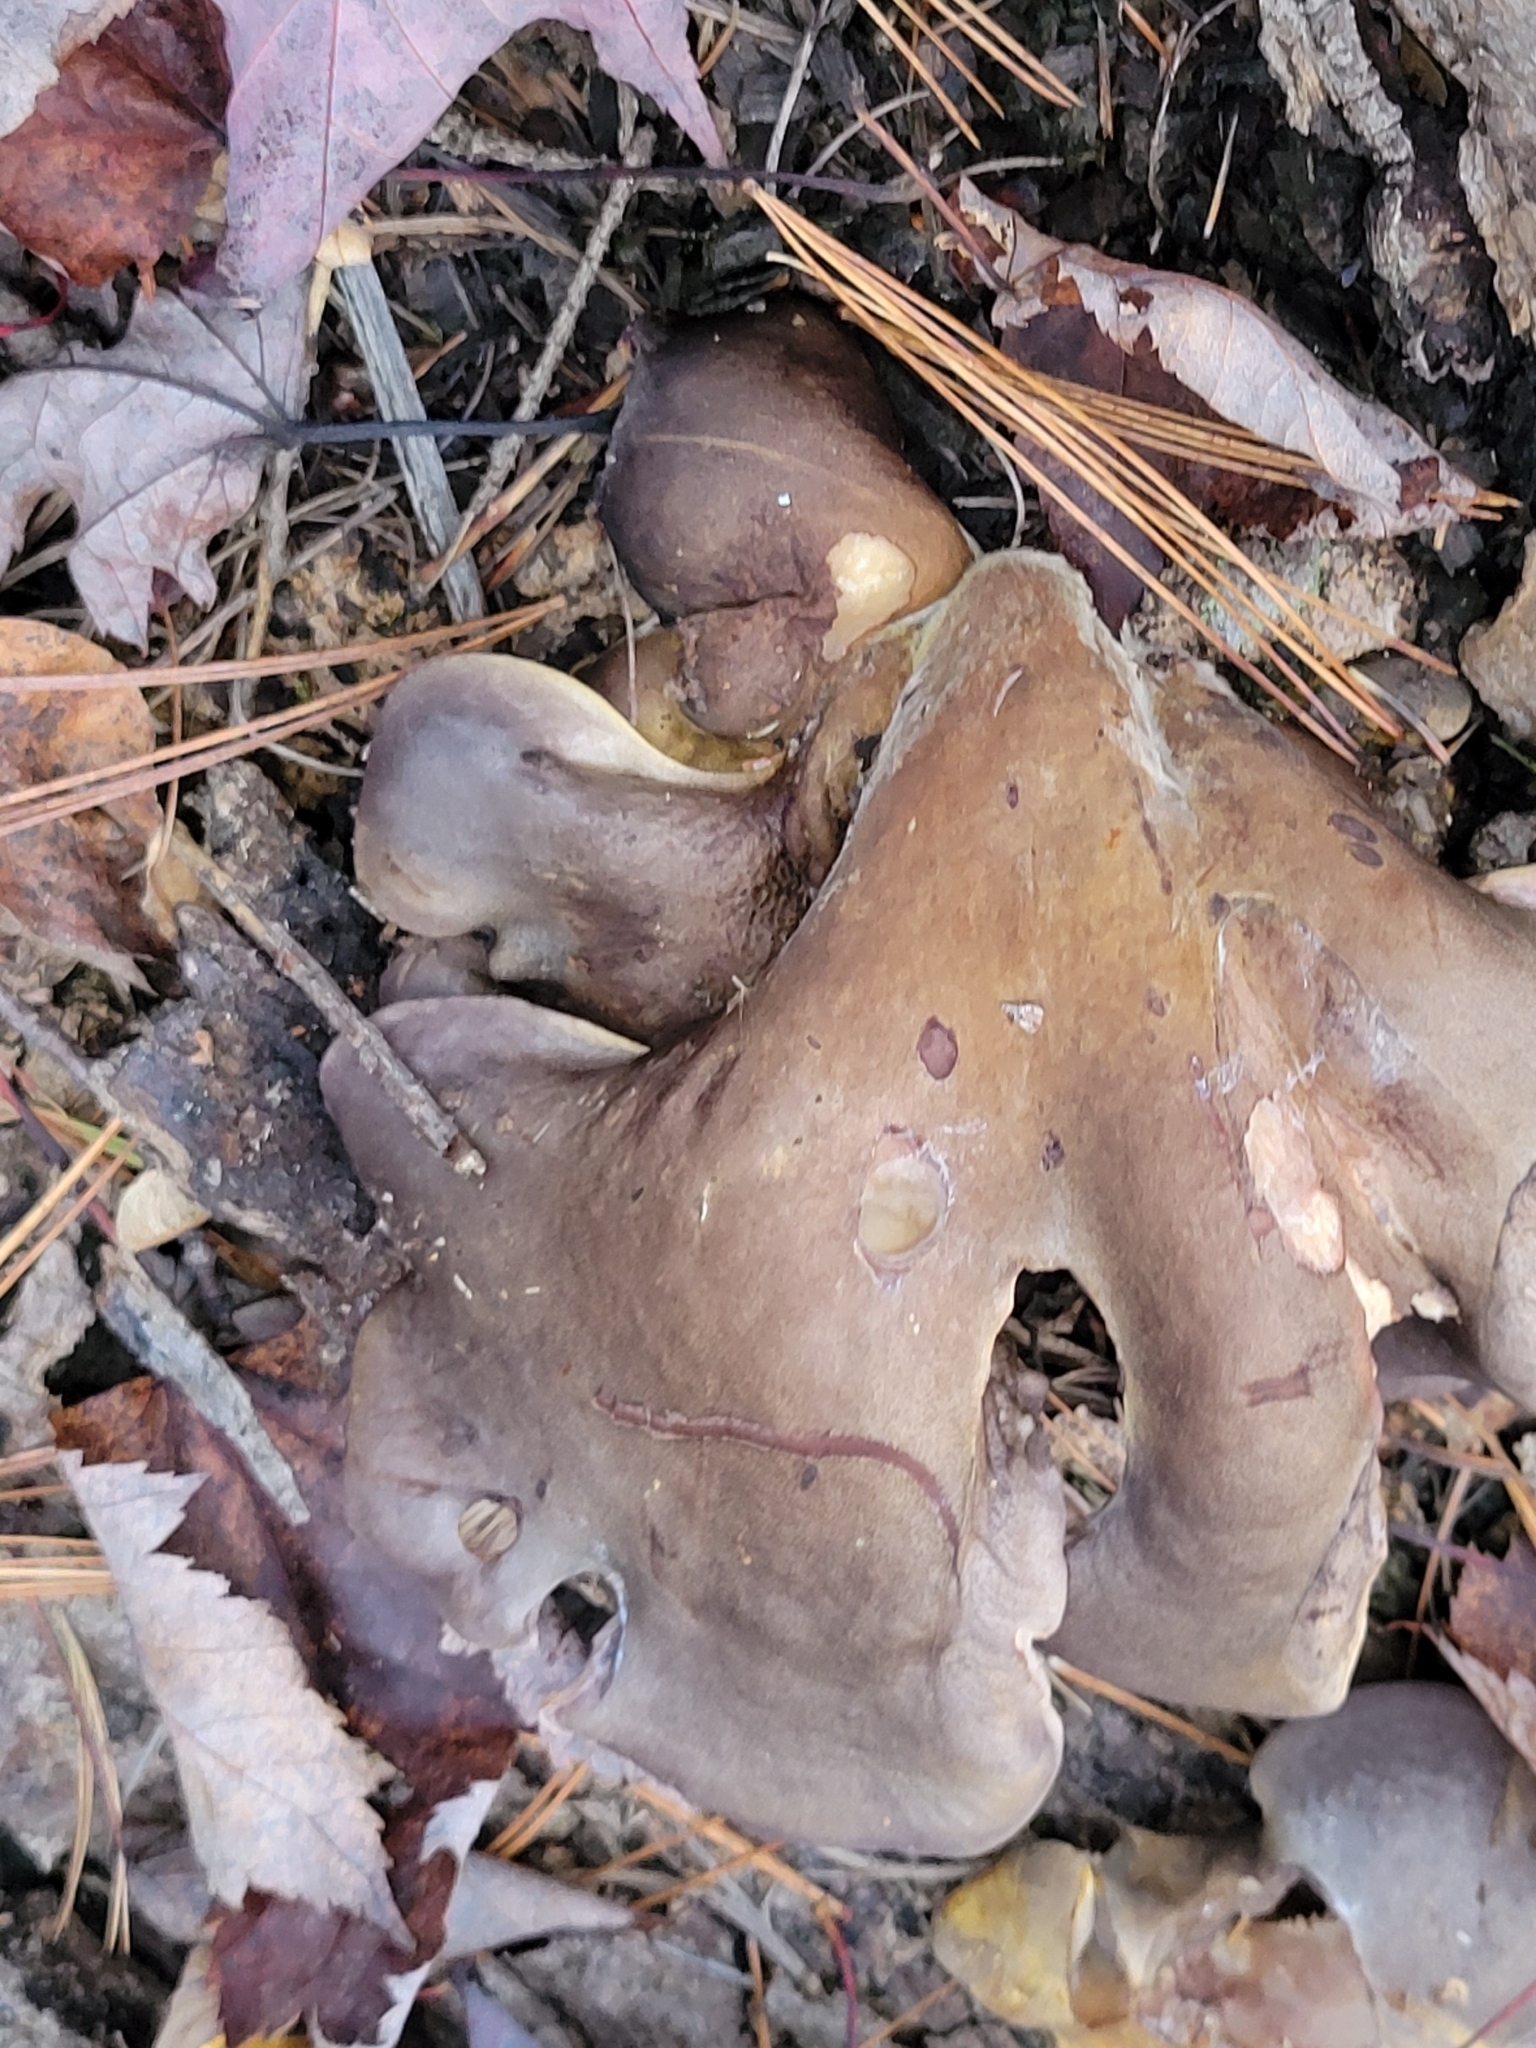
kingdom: Fungi
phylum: Basidiomycota
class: Agaricomycetes
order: Agaricales
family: Sarcomyxaceae
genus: Sarcomyxa
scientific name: Sarcomyxa serotina
